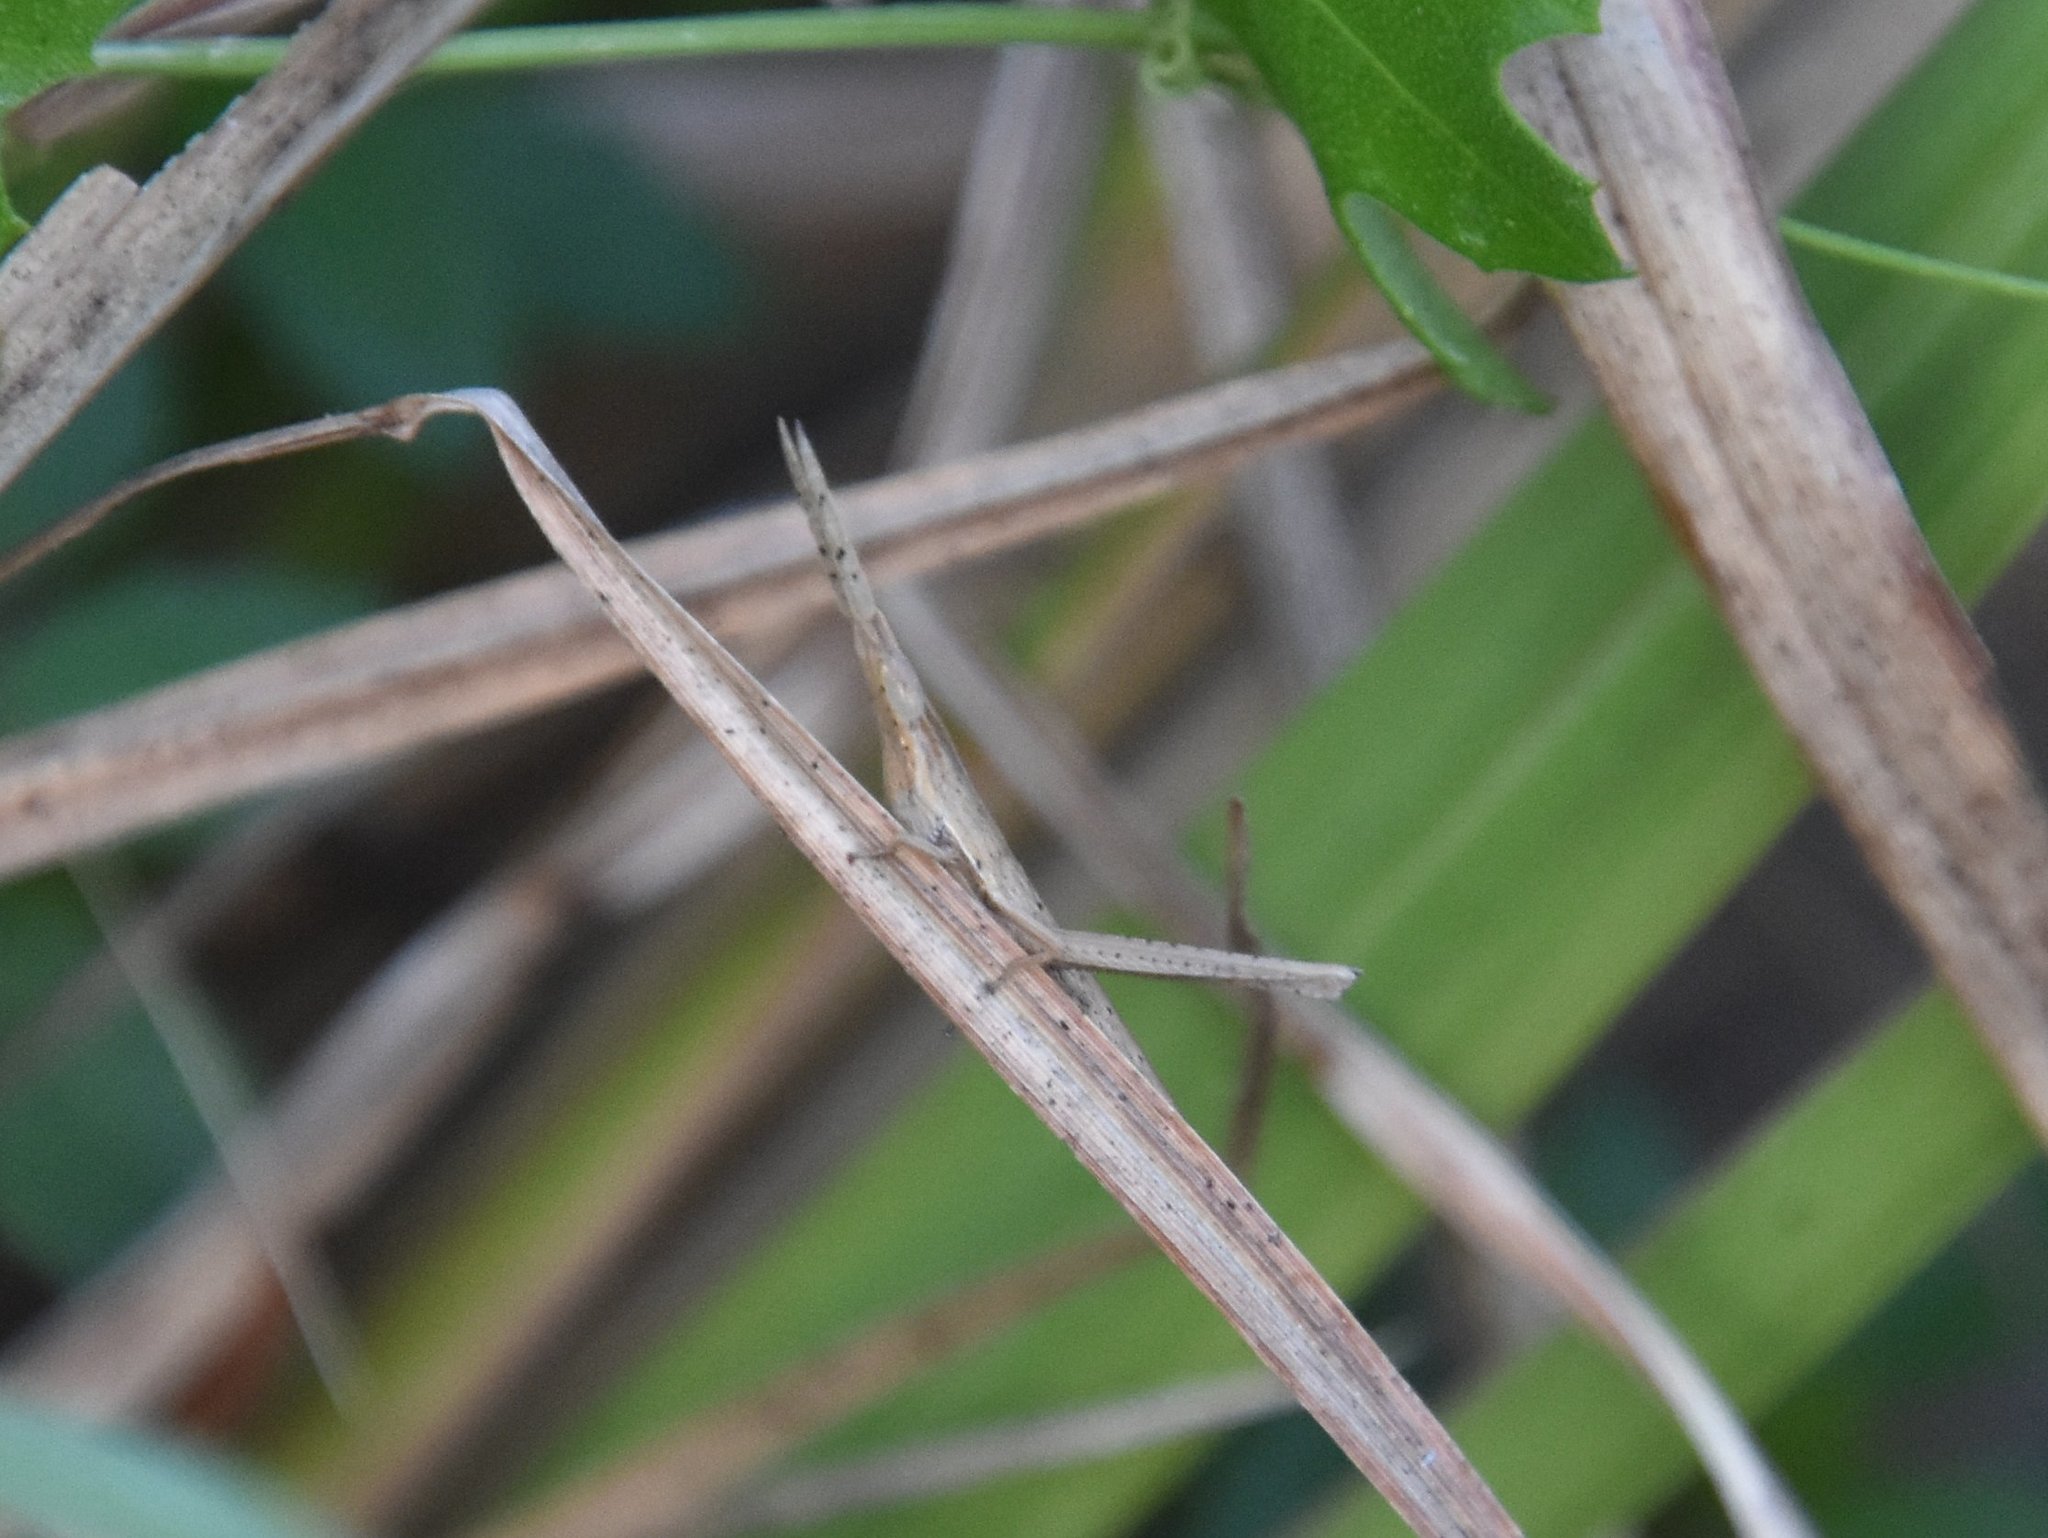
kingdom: Animalia
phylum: Arthropoda
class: Insecta
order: Orthoptera
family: Acrididae
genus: Achurum
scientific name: Achurum carinatum
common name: Long-headed toothpick grasshopper
